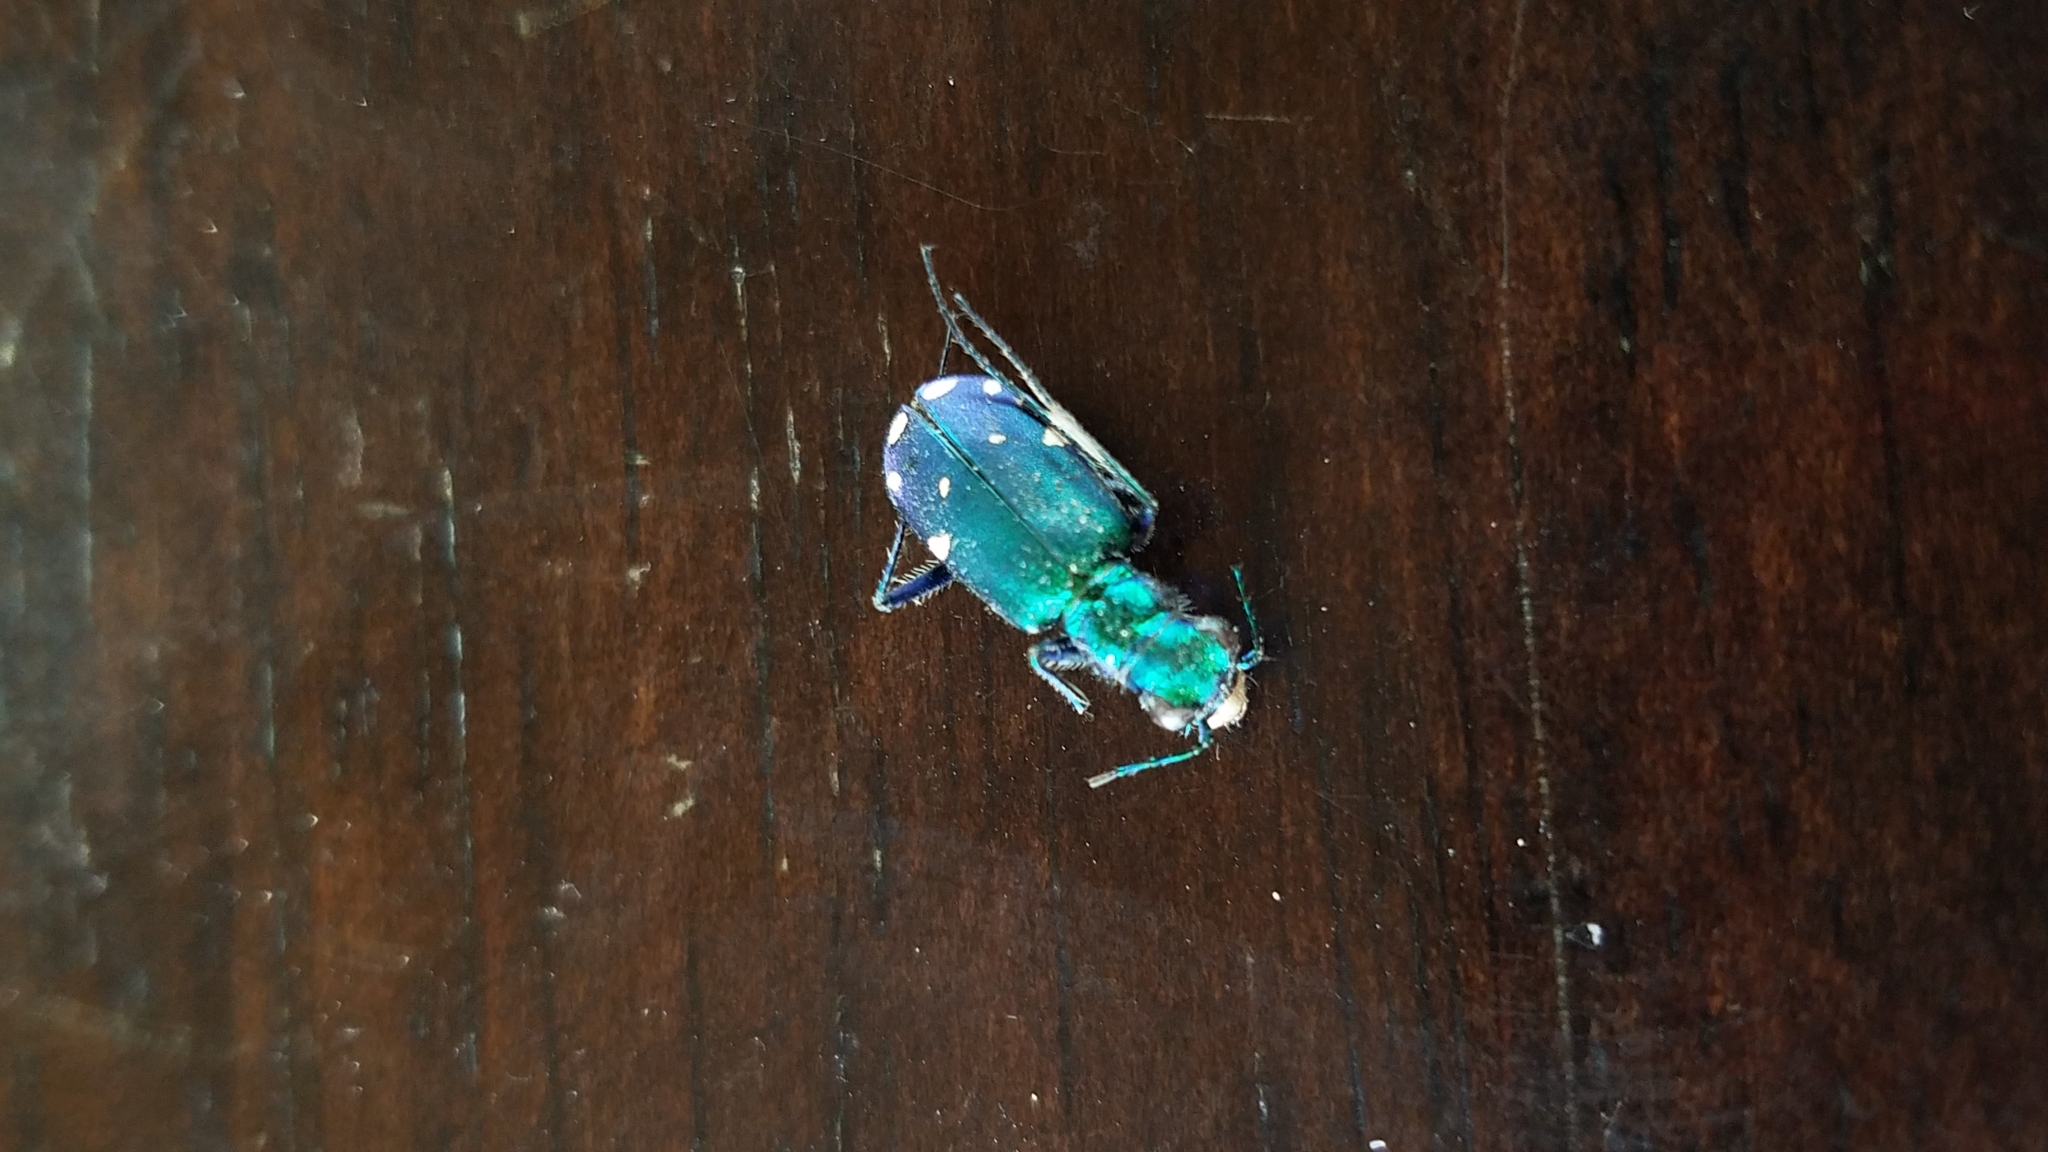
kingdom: Animalia
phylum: Arthropoda
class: Insecta
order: Coleoptera
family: Carabidae
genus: Cicindela
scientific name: Cicindela sexguttata
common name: Six-spotted tiger beetle
